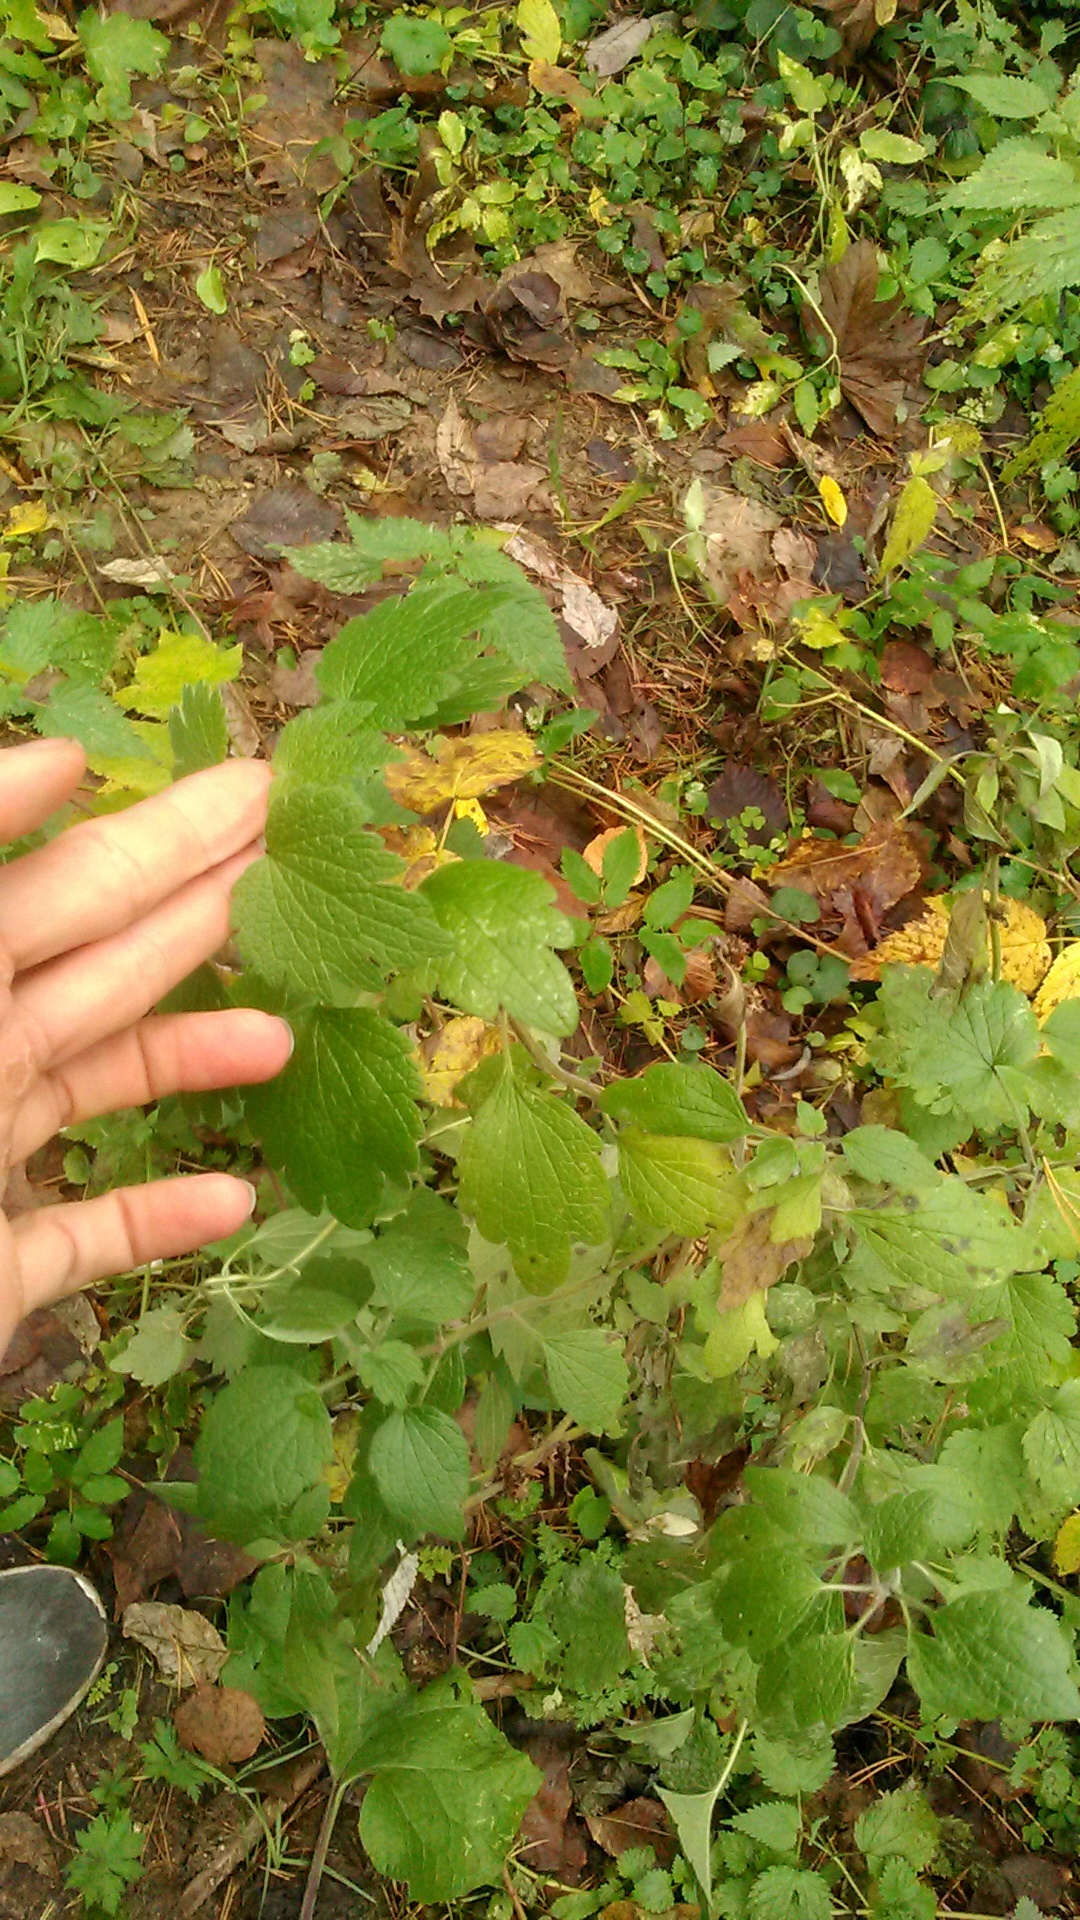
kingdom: Plantae
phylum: Tracheophyta
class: Magnoliopsida
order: Lamiales
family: Lamiaceae
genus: Leonurus
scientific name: Leonurus quinquelobatus
